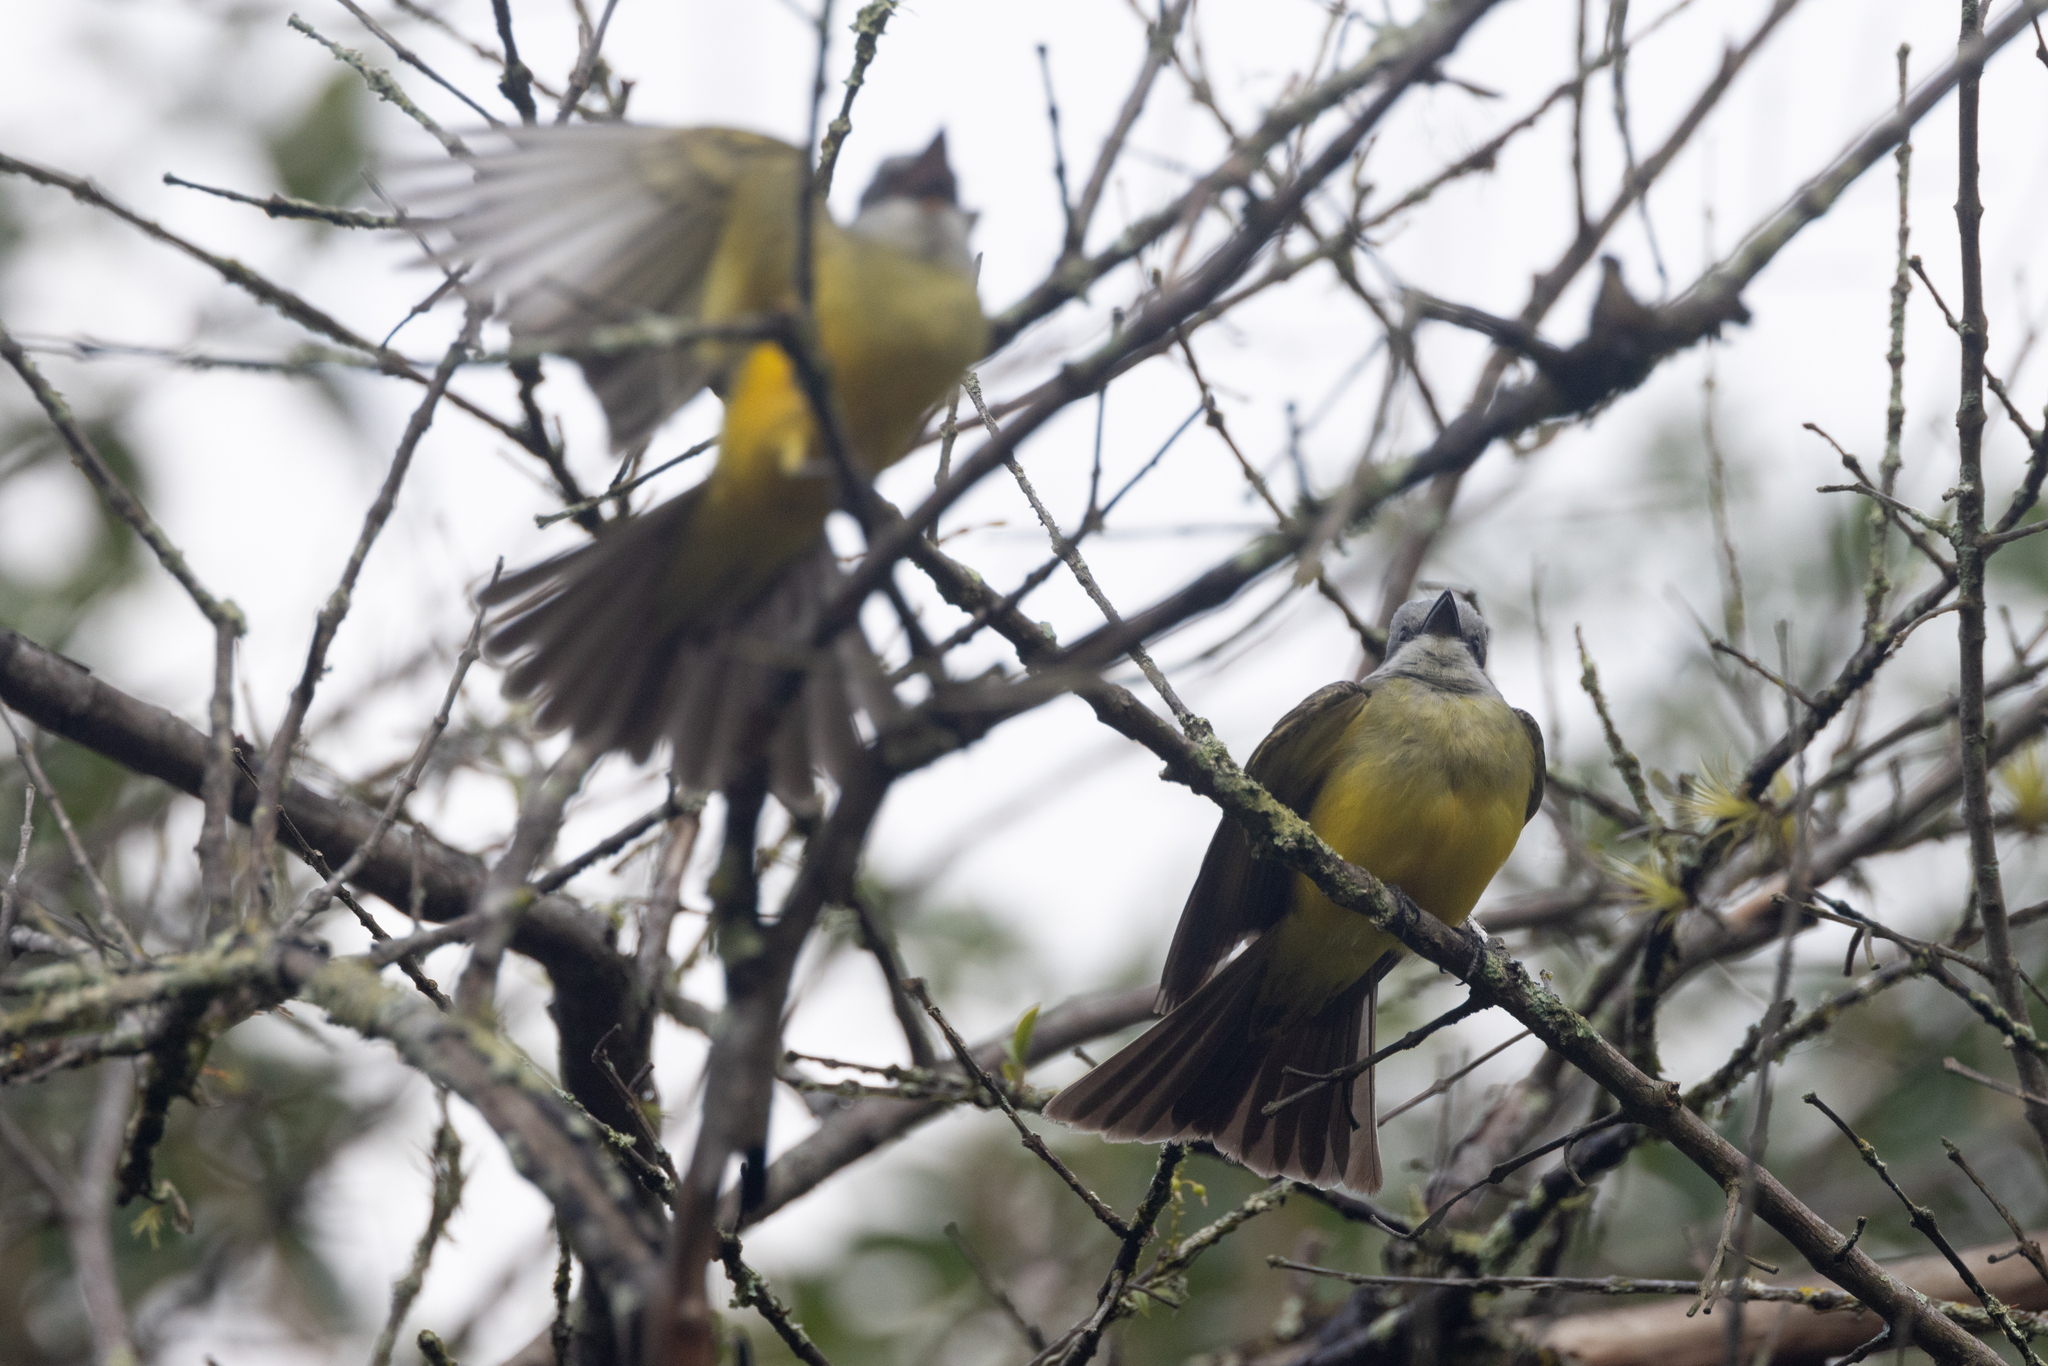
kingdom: Animalia
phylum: Chordata
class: Aves
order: Passeriformes
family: Tyrannidae
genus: Tyrannus
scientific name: Tyrannus melancholicus
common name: Tropical kingbird
